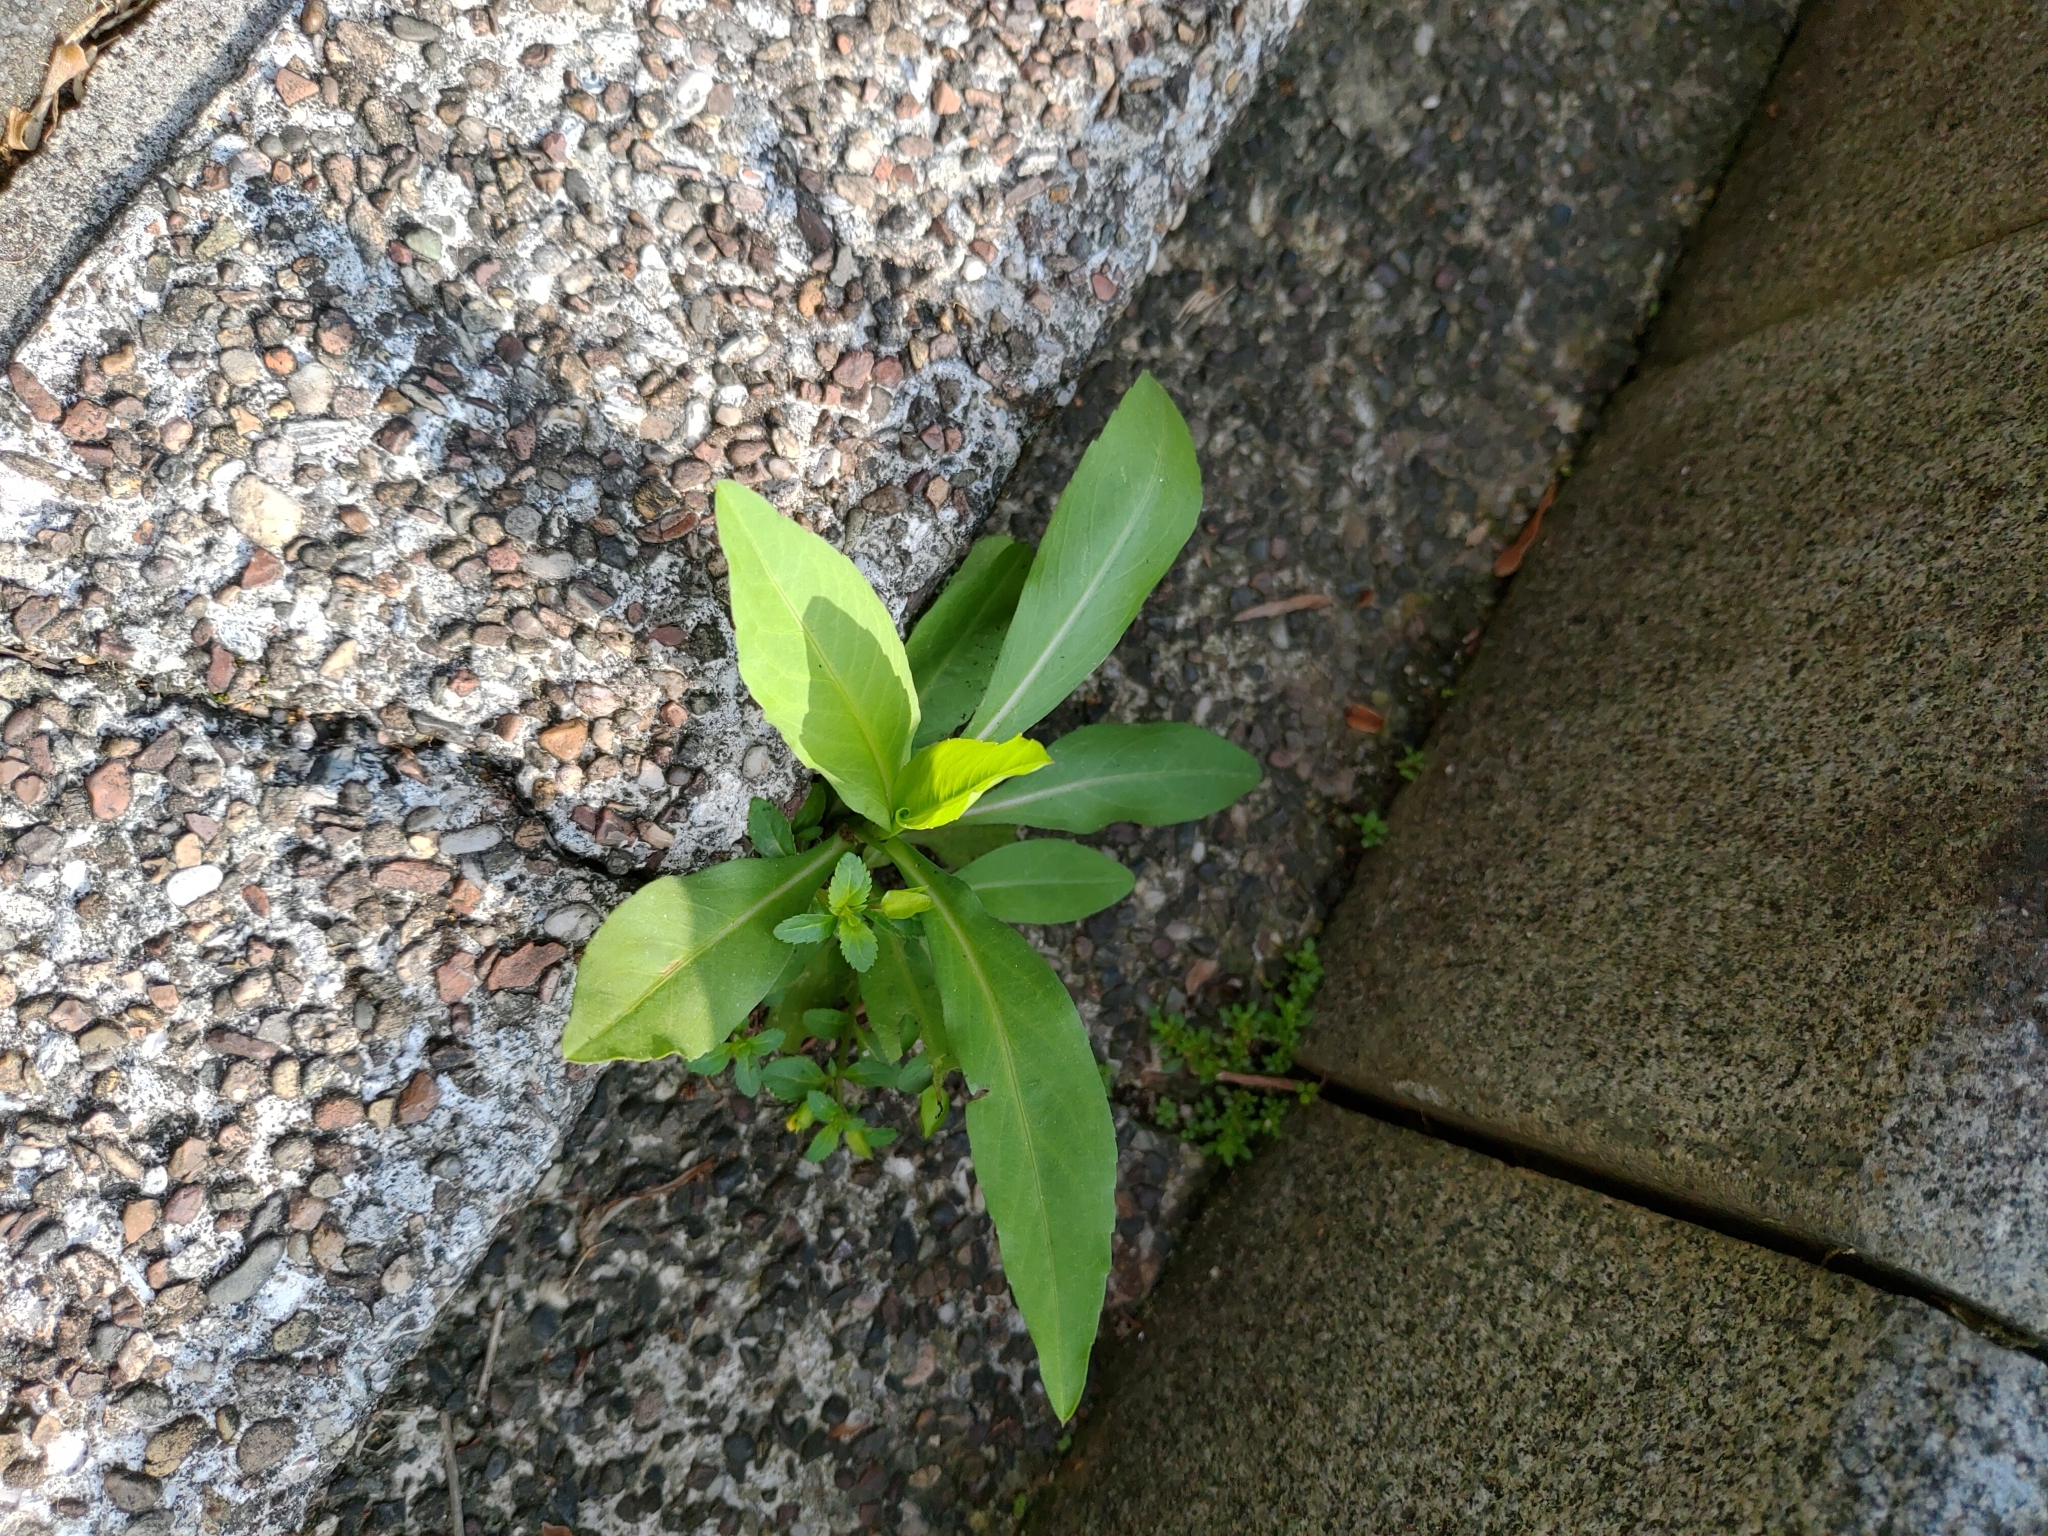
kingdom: Plantae
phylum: Tracheophyta
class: Magnoliopsida
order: Asterales
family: Asteraceae
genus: Symphyotrichum
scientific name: Symphyotrichum subulatum
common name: Annual saltmarsh aster
